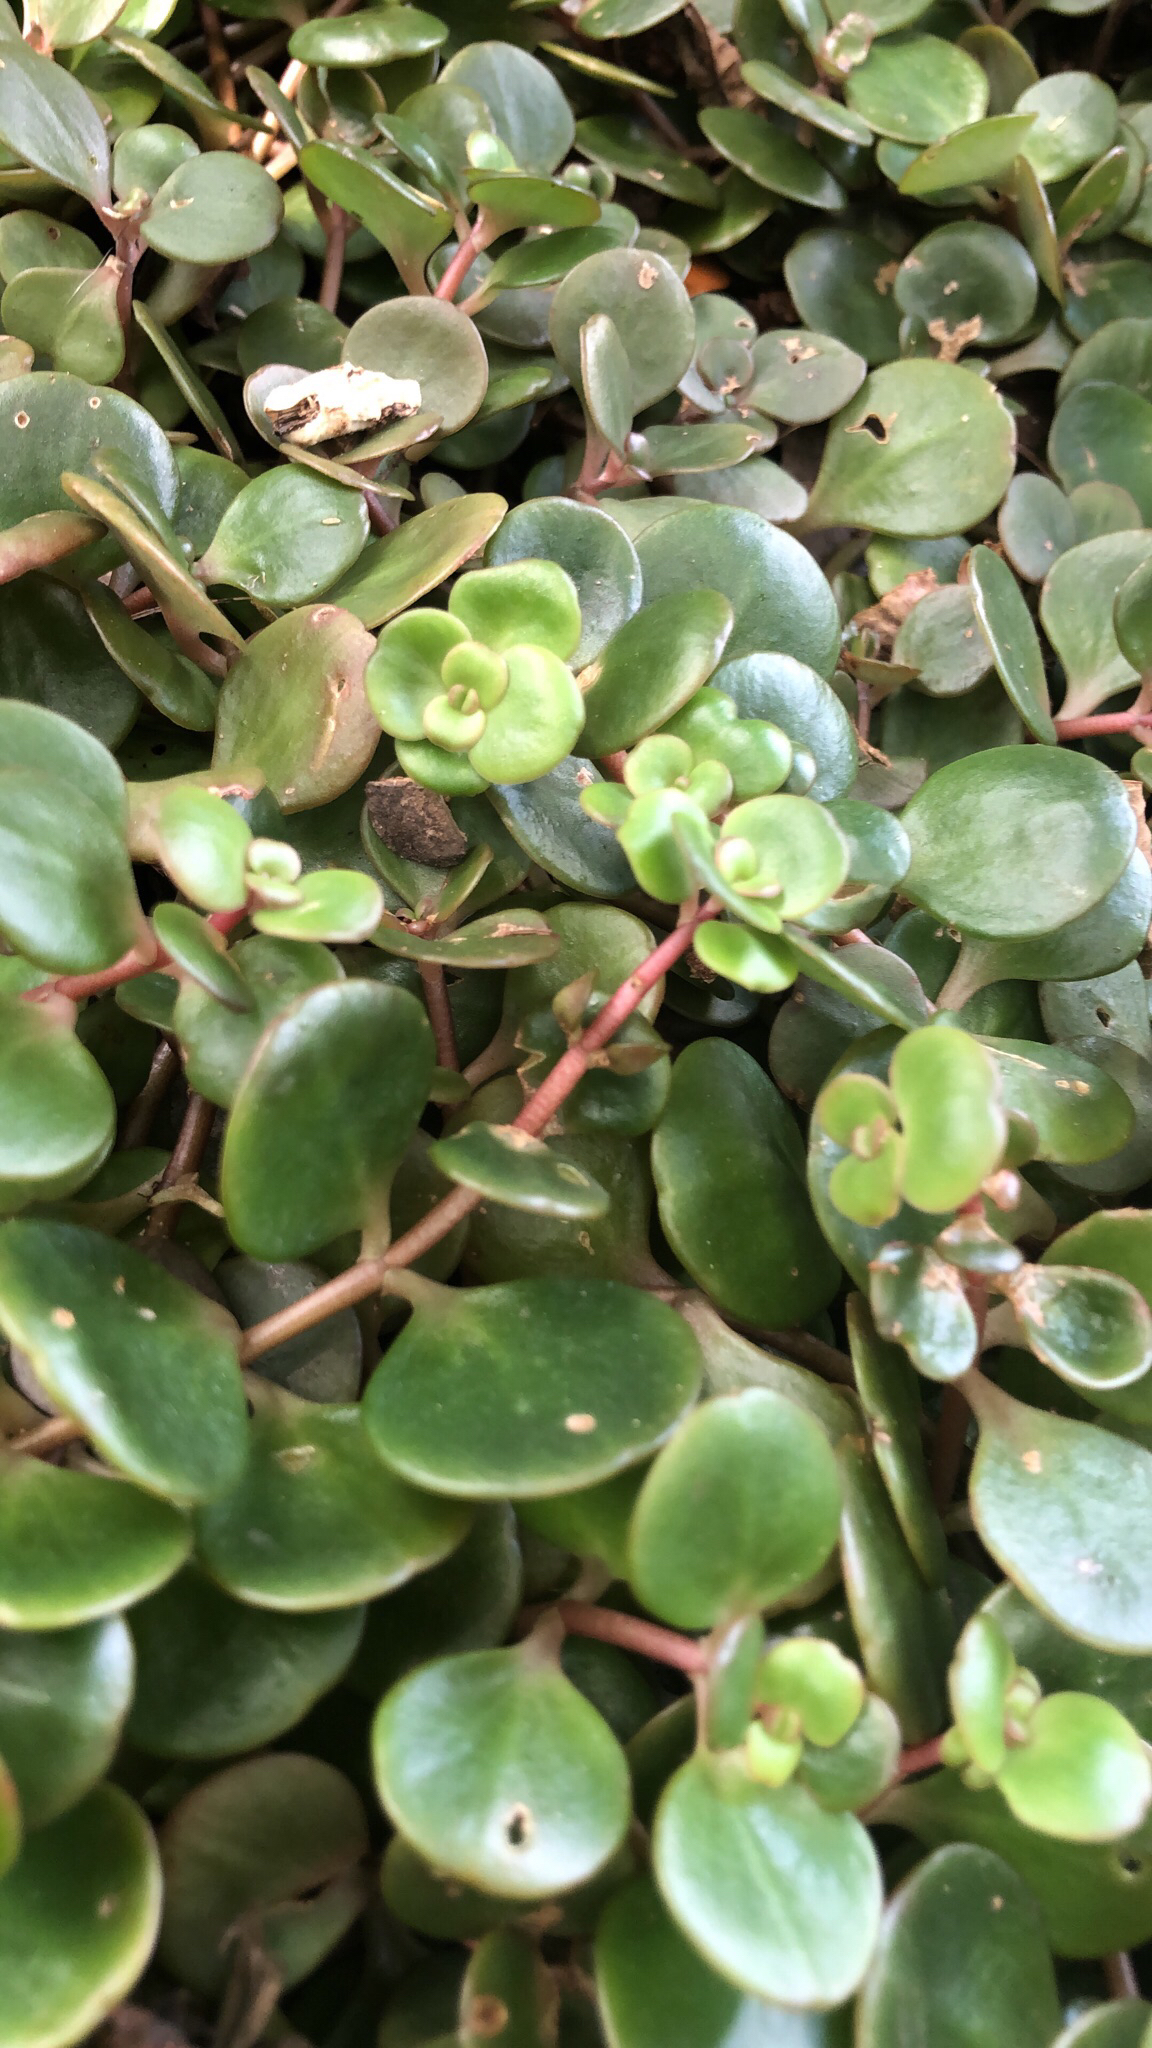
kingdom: Plantae
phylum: Tracheophyta
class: Magnoliopsida
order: Saxifragales
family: Crassulaceae
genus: Sedum
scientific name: Sedum tetractinum
